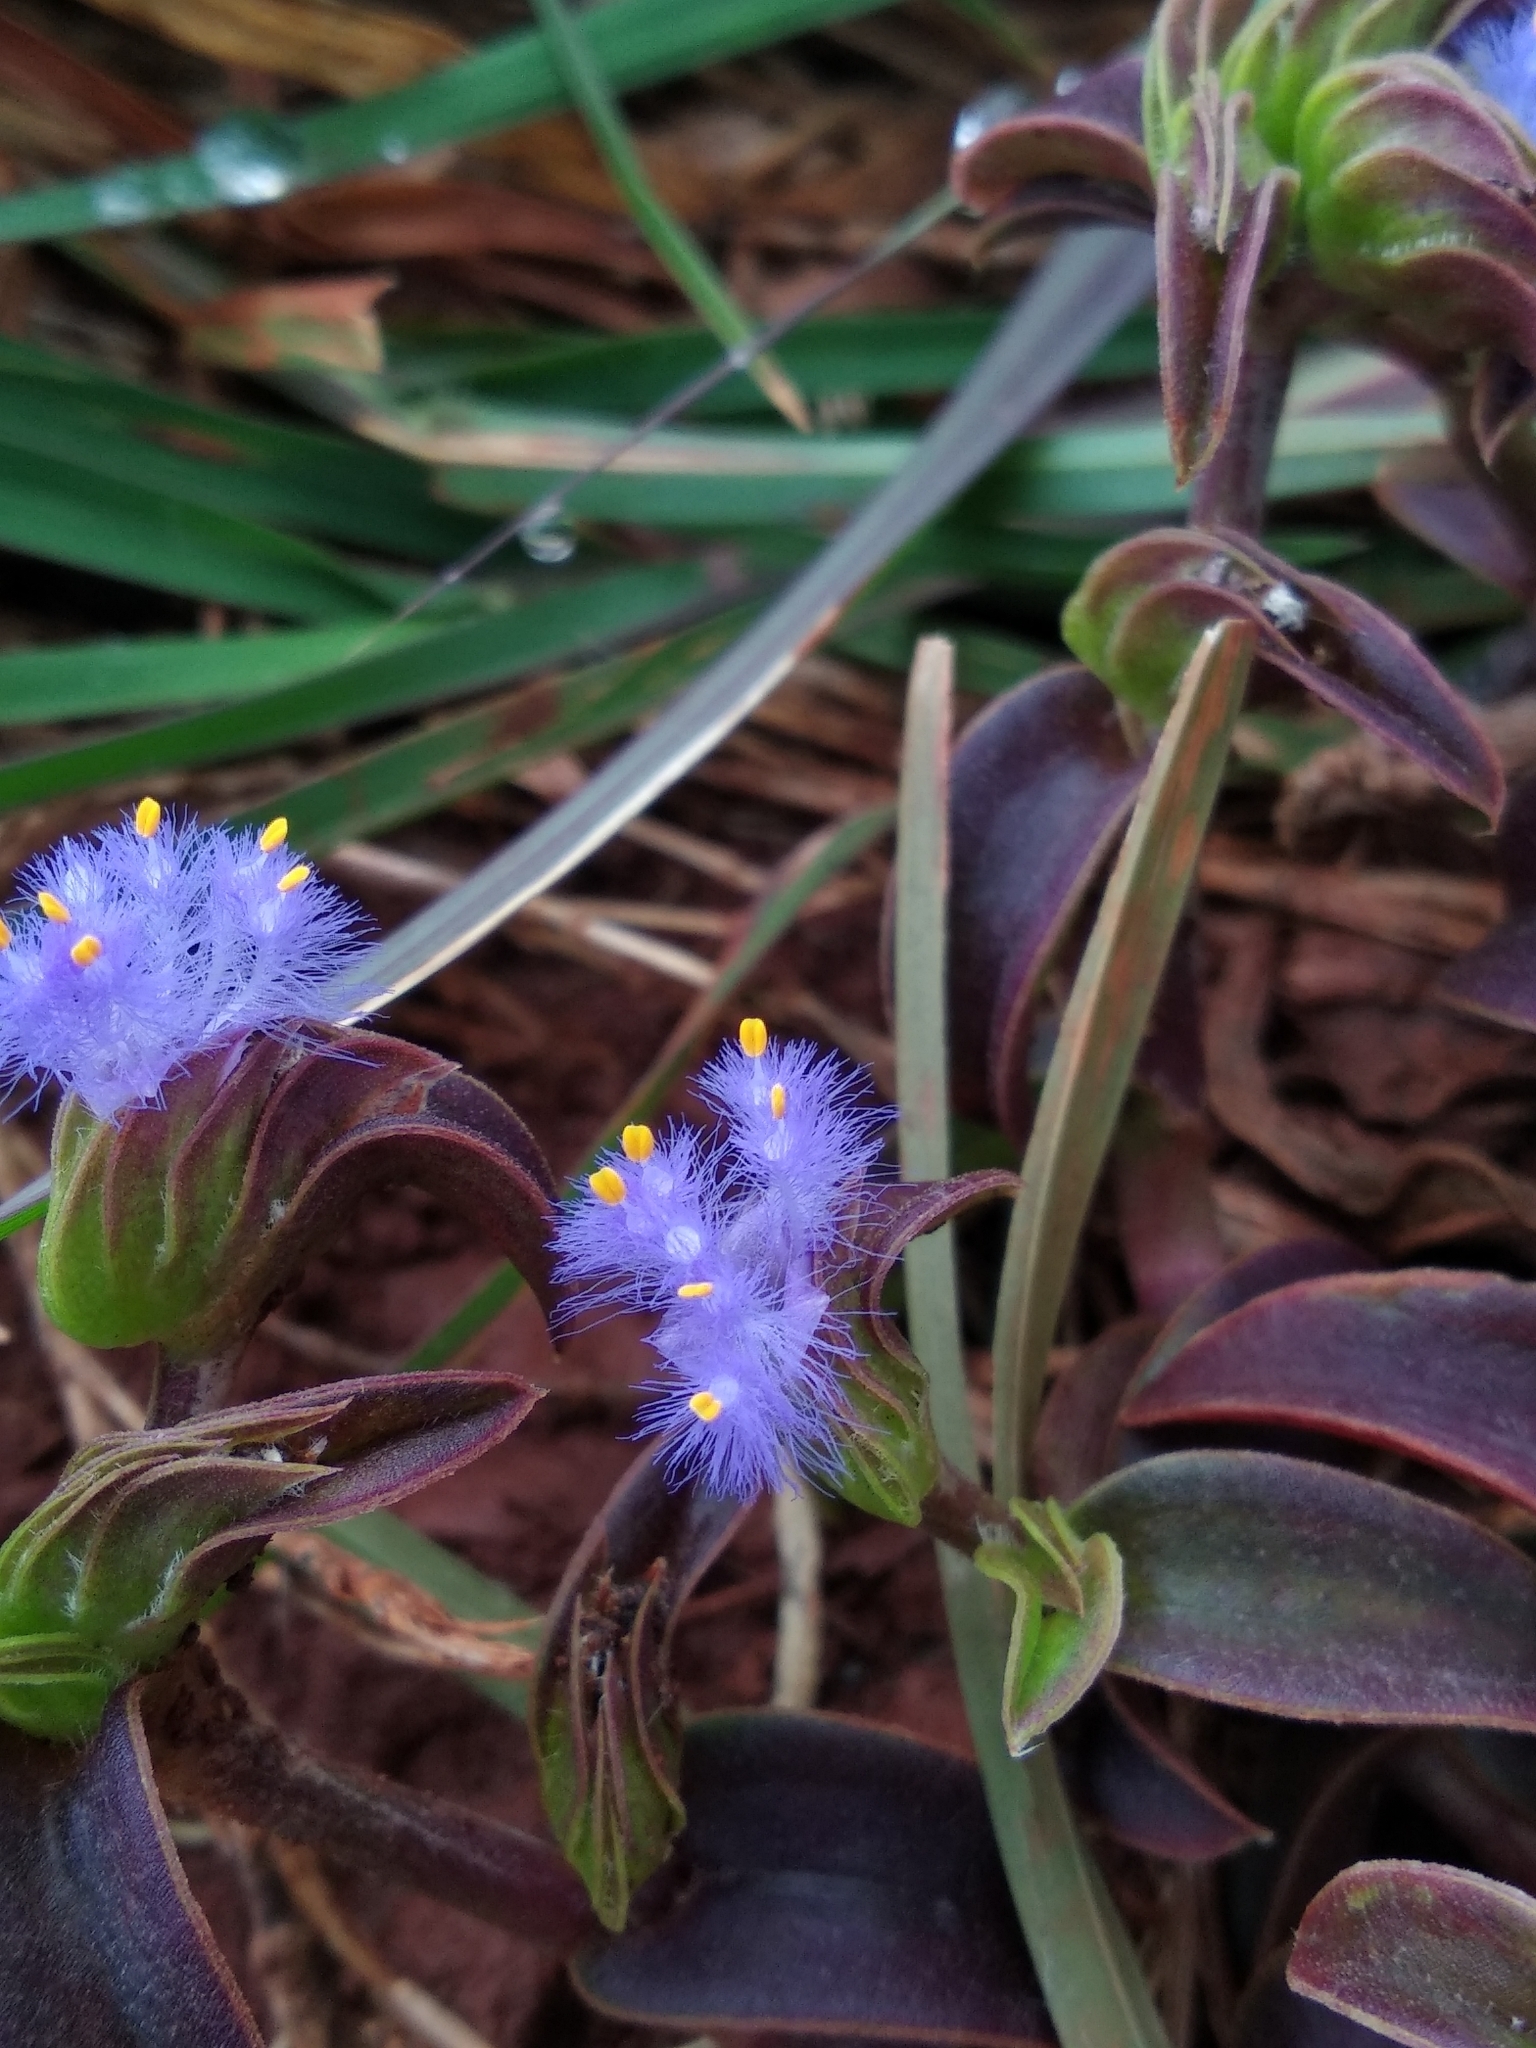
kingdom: Plantae
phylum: Tracheophyta
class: Liliopsida
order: Commelinales
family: Commelinaceae
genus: Cyanotis
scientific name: Cyanotis tuberosa
